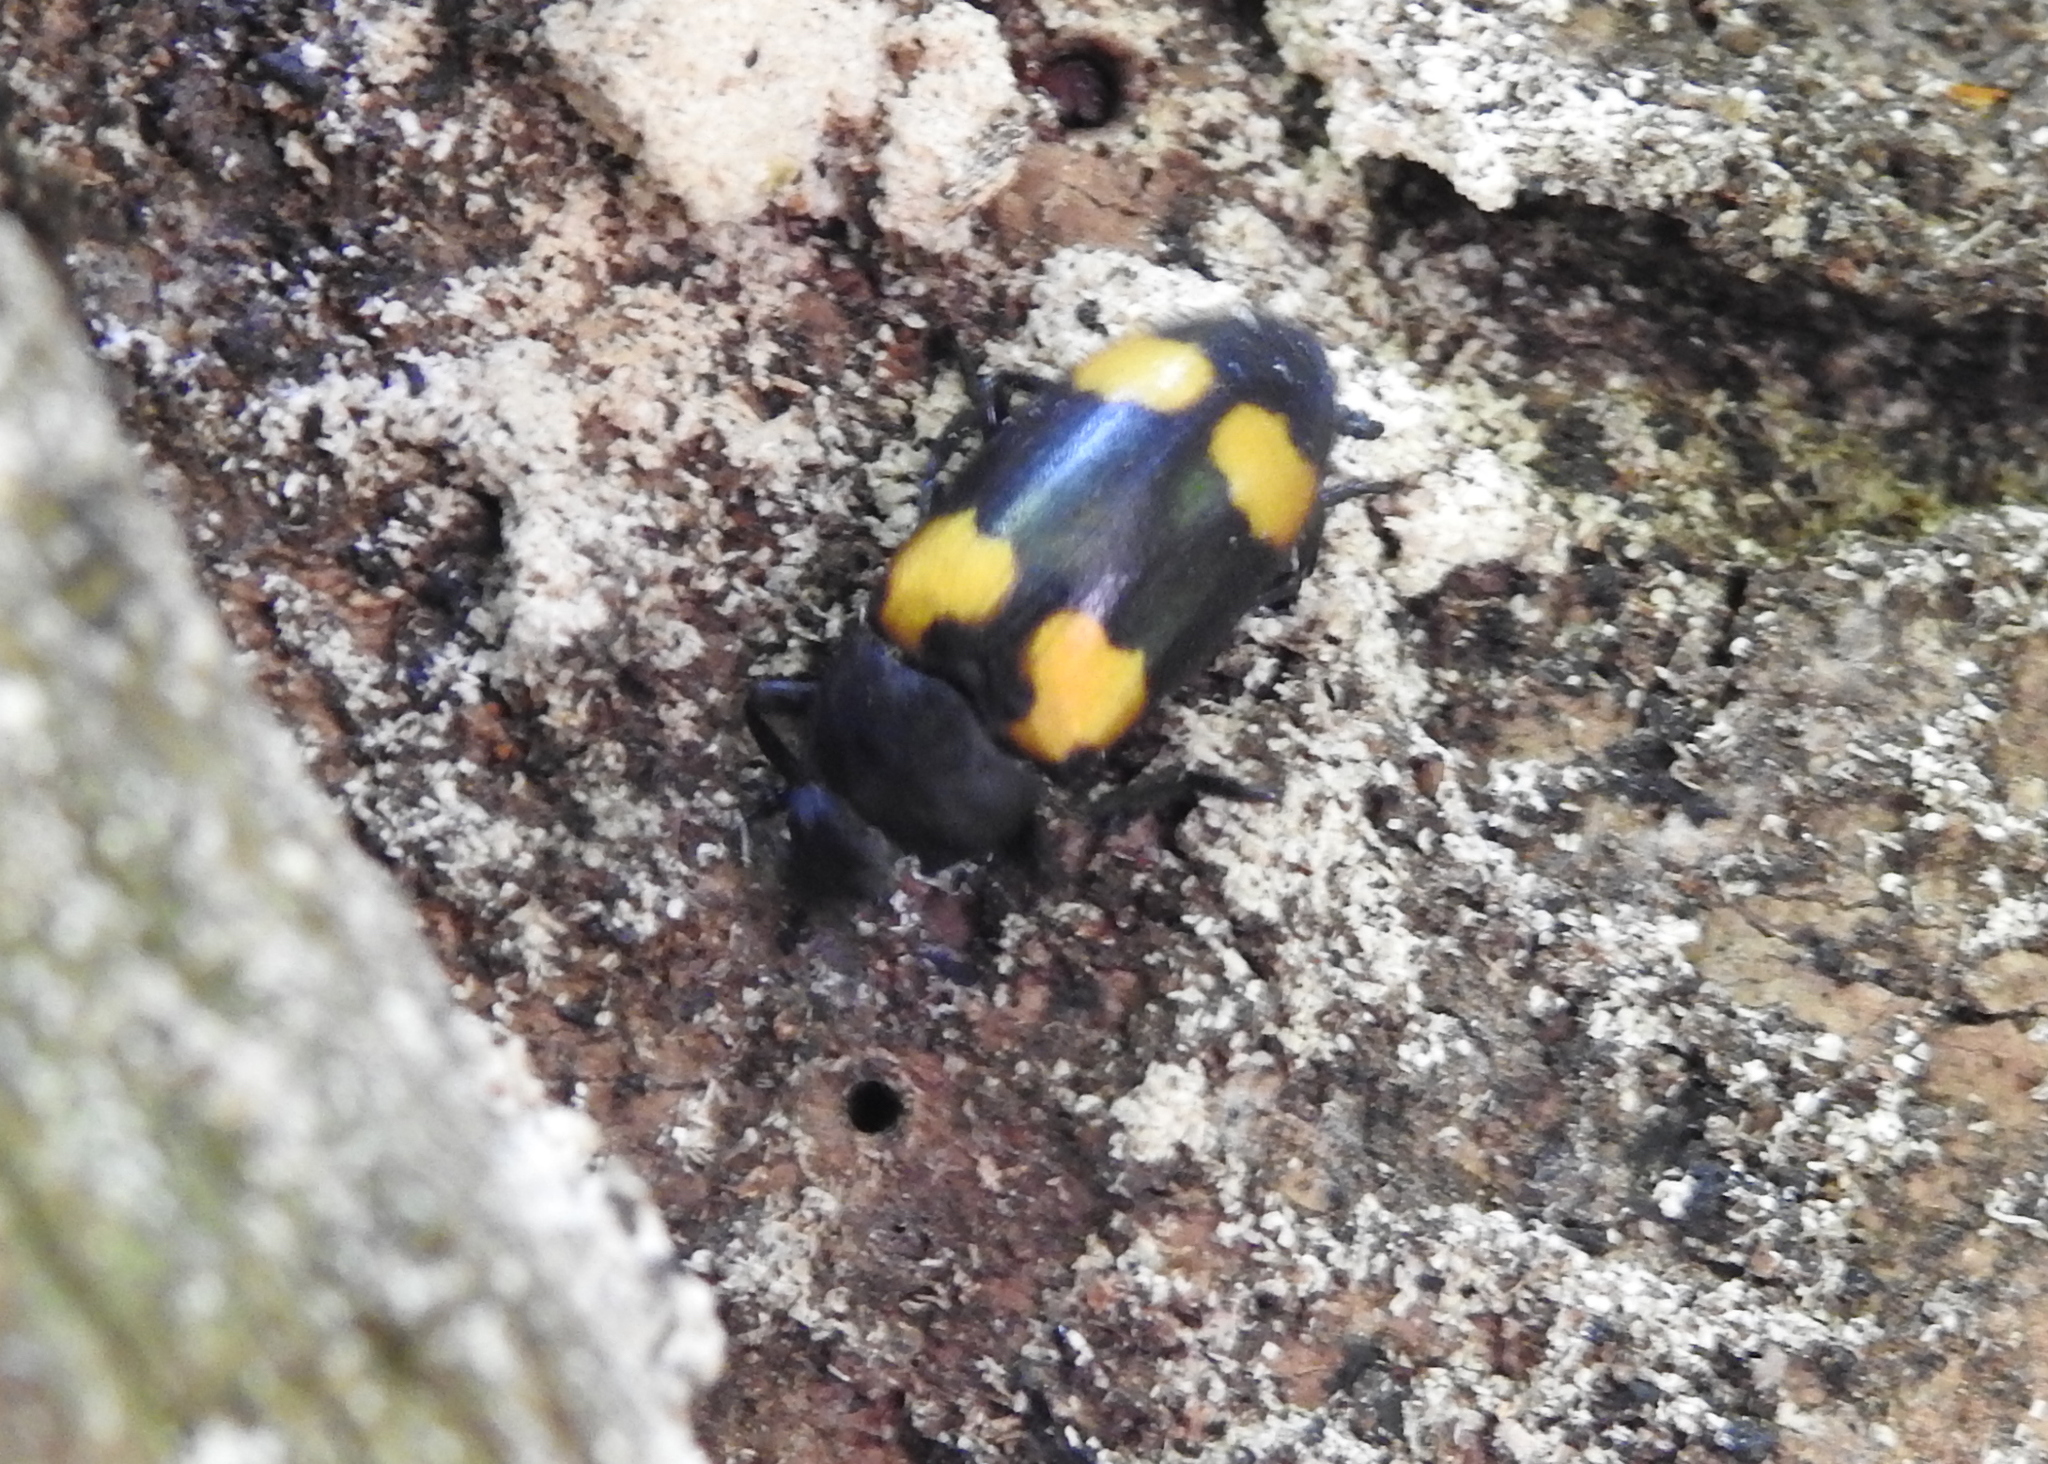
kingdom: Animalia
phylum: Arthropoda
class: Insecta
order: Coleoptera
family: Erotylidae
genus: Episcapha
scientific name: Episcapha
